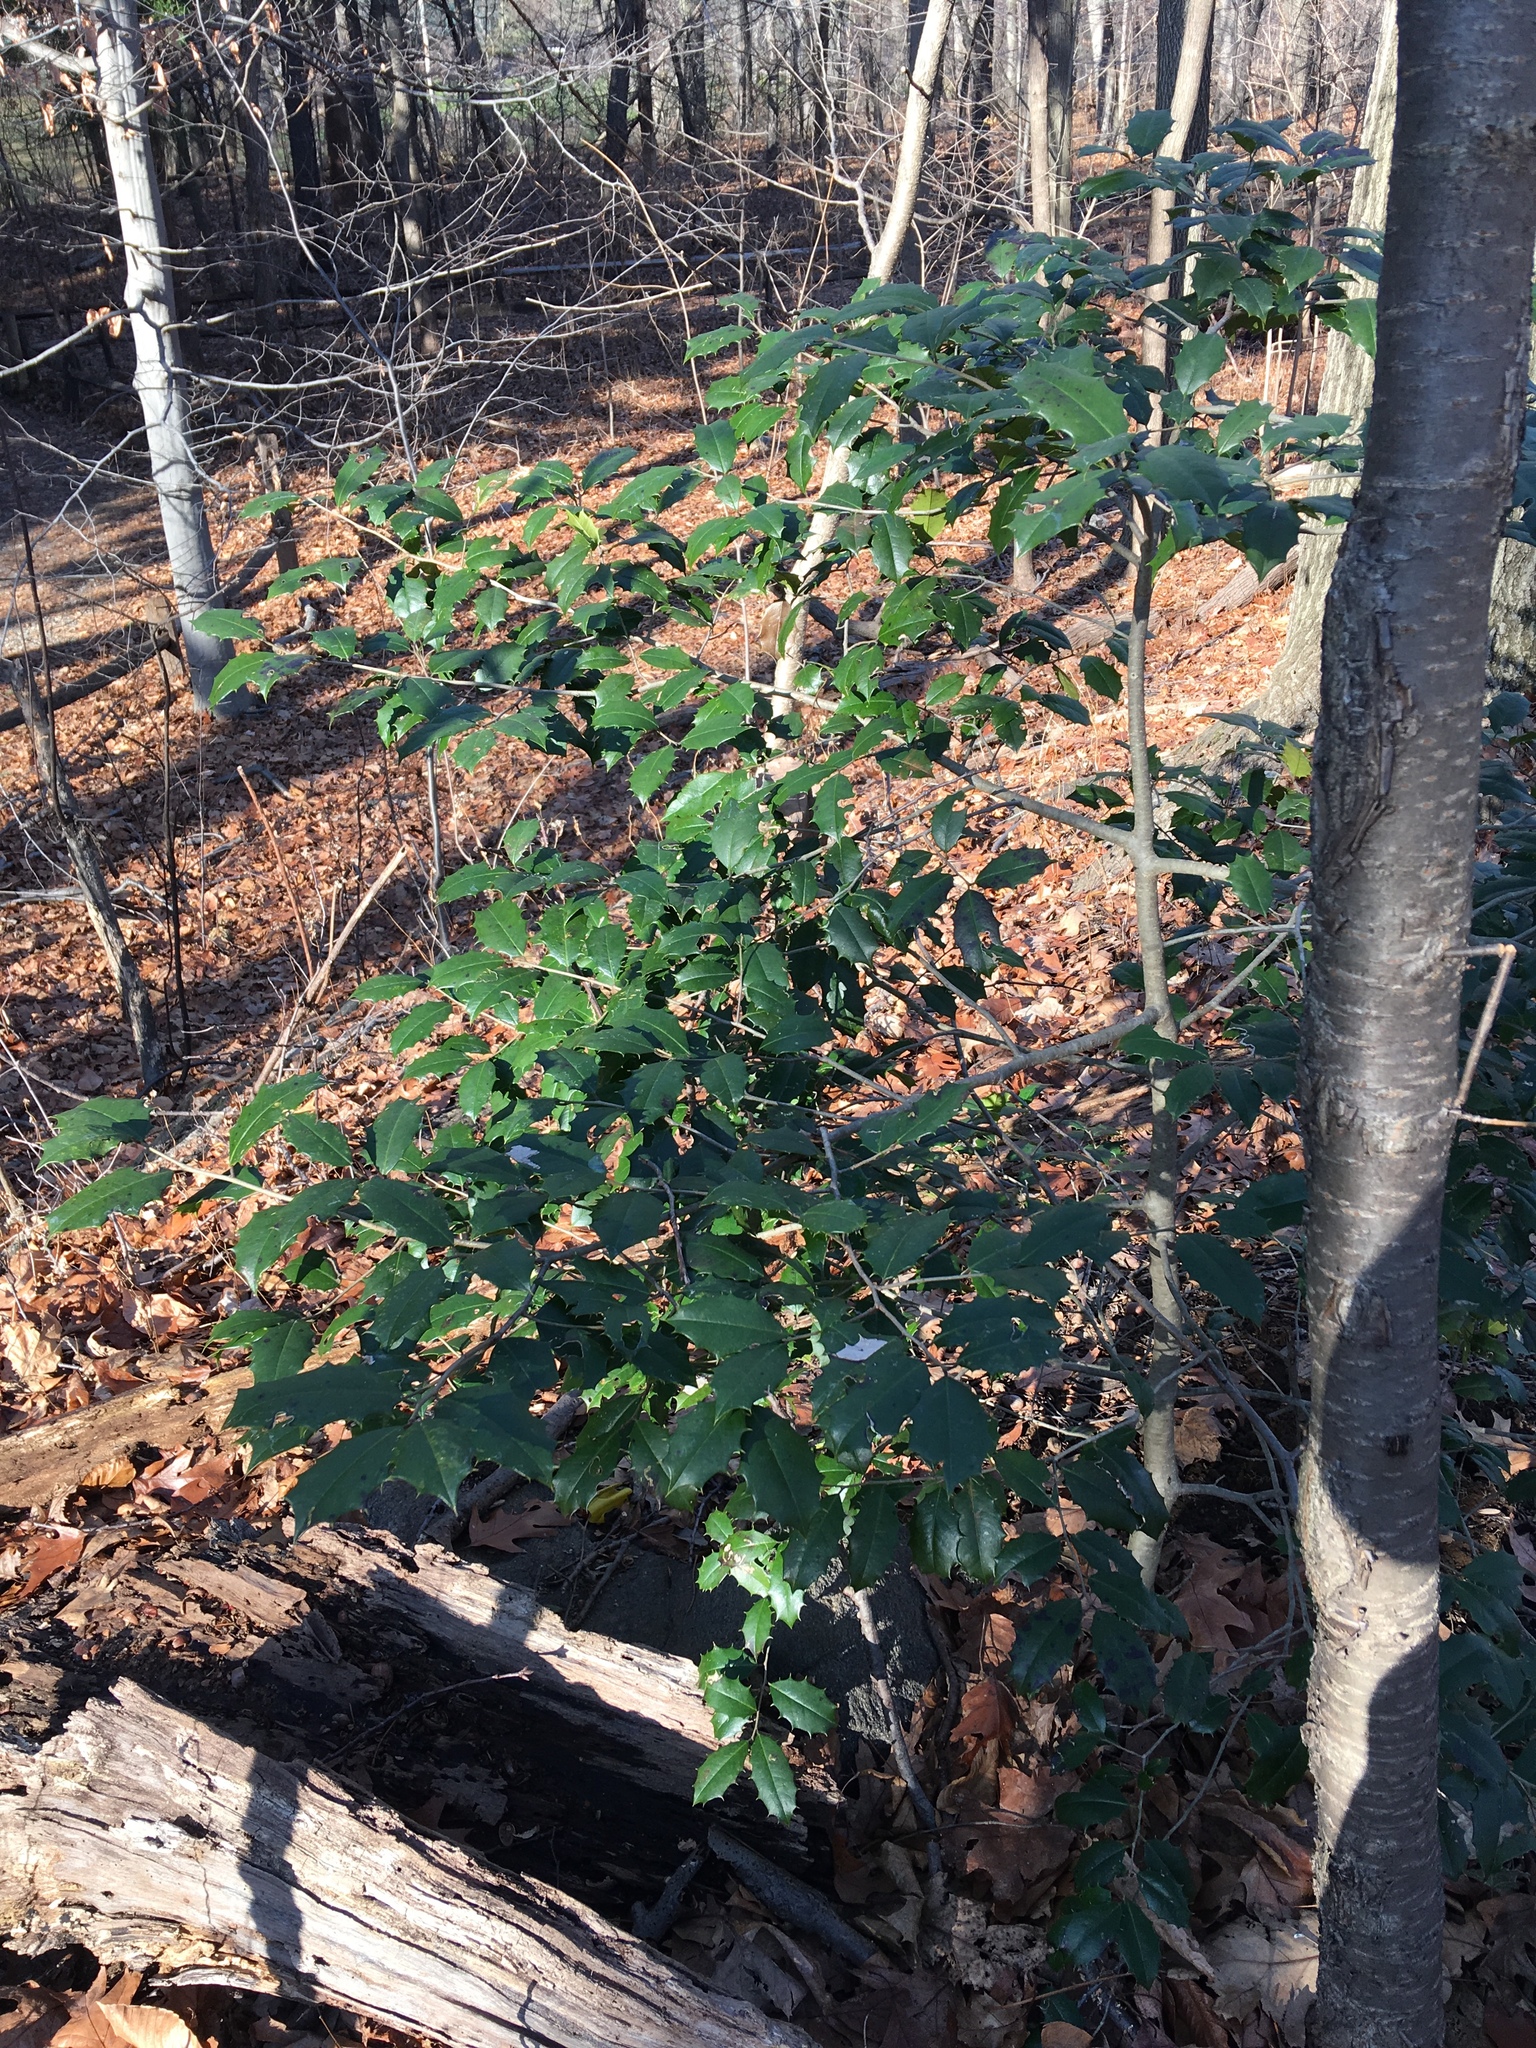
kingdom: Plantae
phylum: Tracheophyta
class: Magnoliopsida
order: Aquifoliales
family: Aquifoliaceae
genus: Ilex
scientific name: Ilex opaca
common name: American holly
